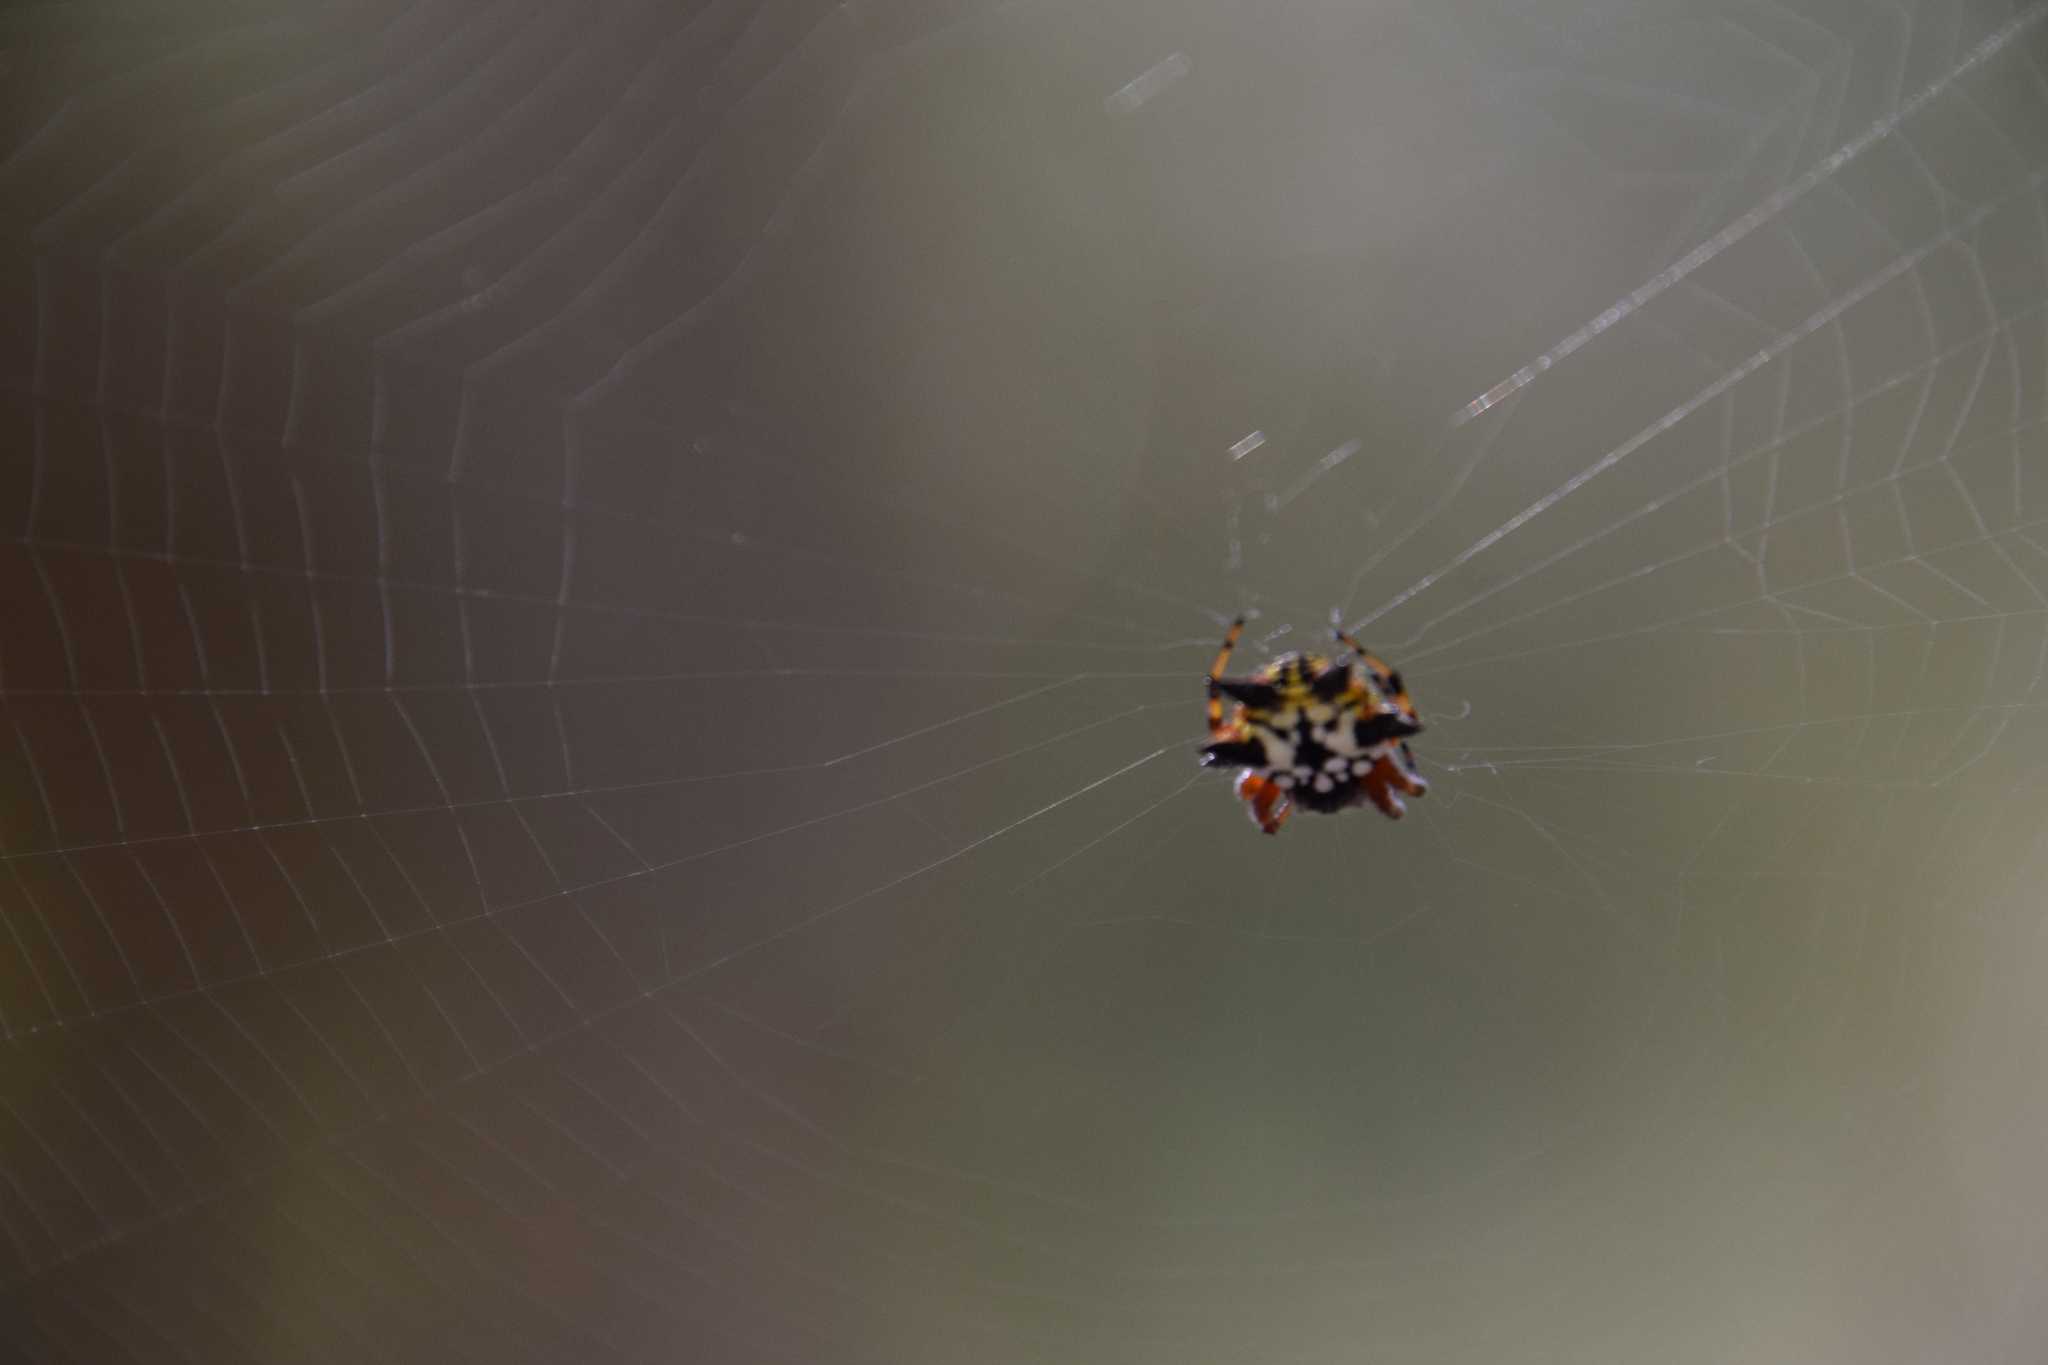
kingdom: Animalia
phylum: Arthropoda
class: Arachnida
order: Araneae
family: Araneidae
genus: Austracantha
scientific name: Austracantha minax
